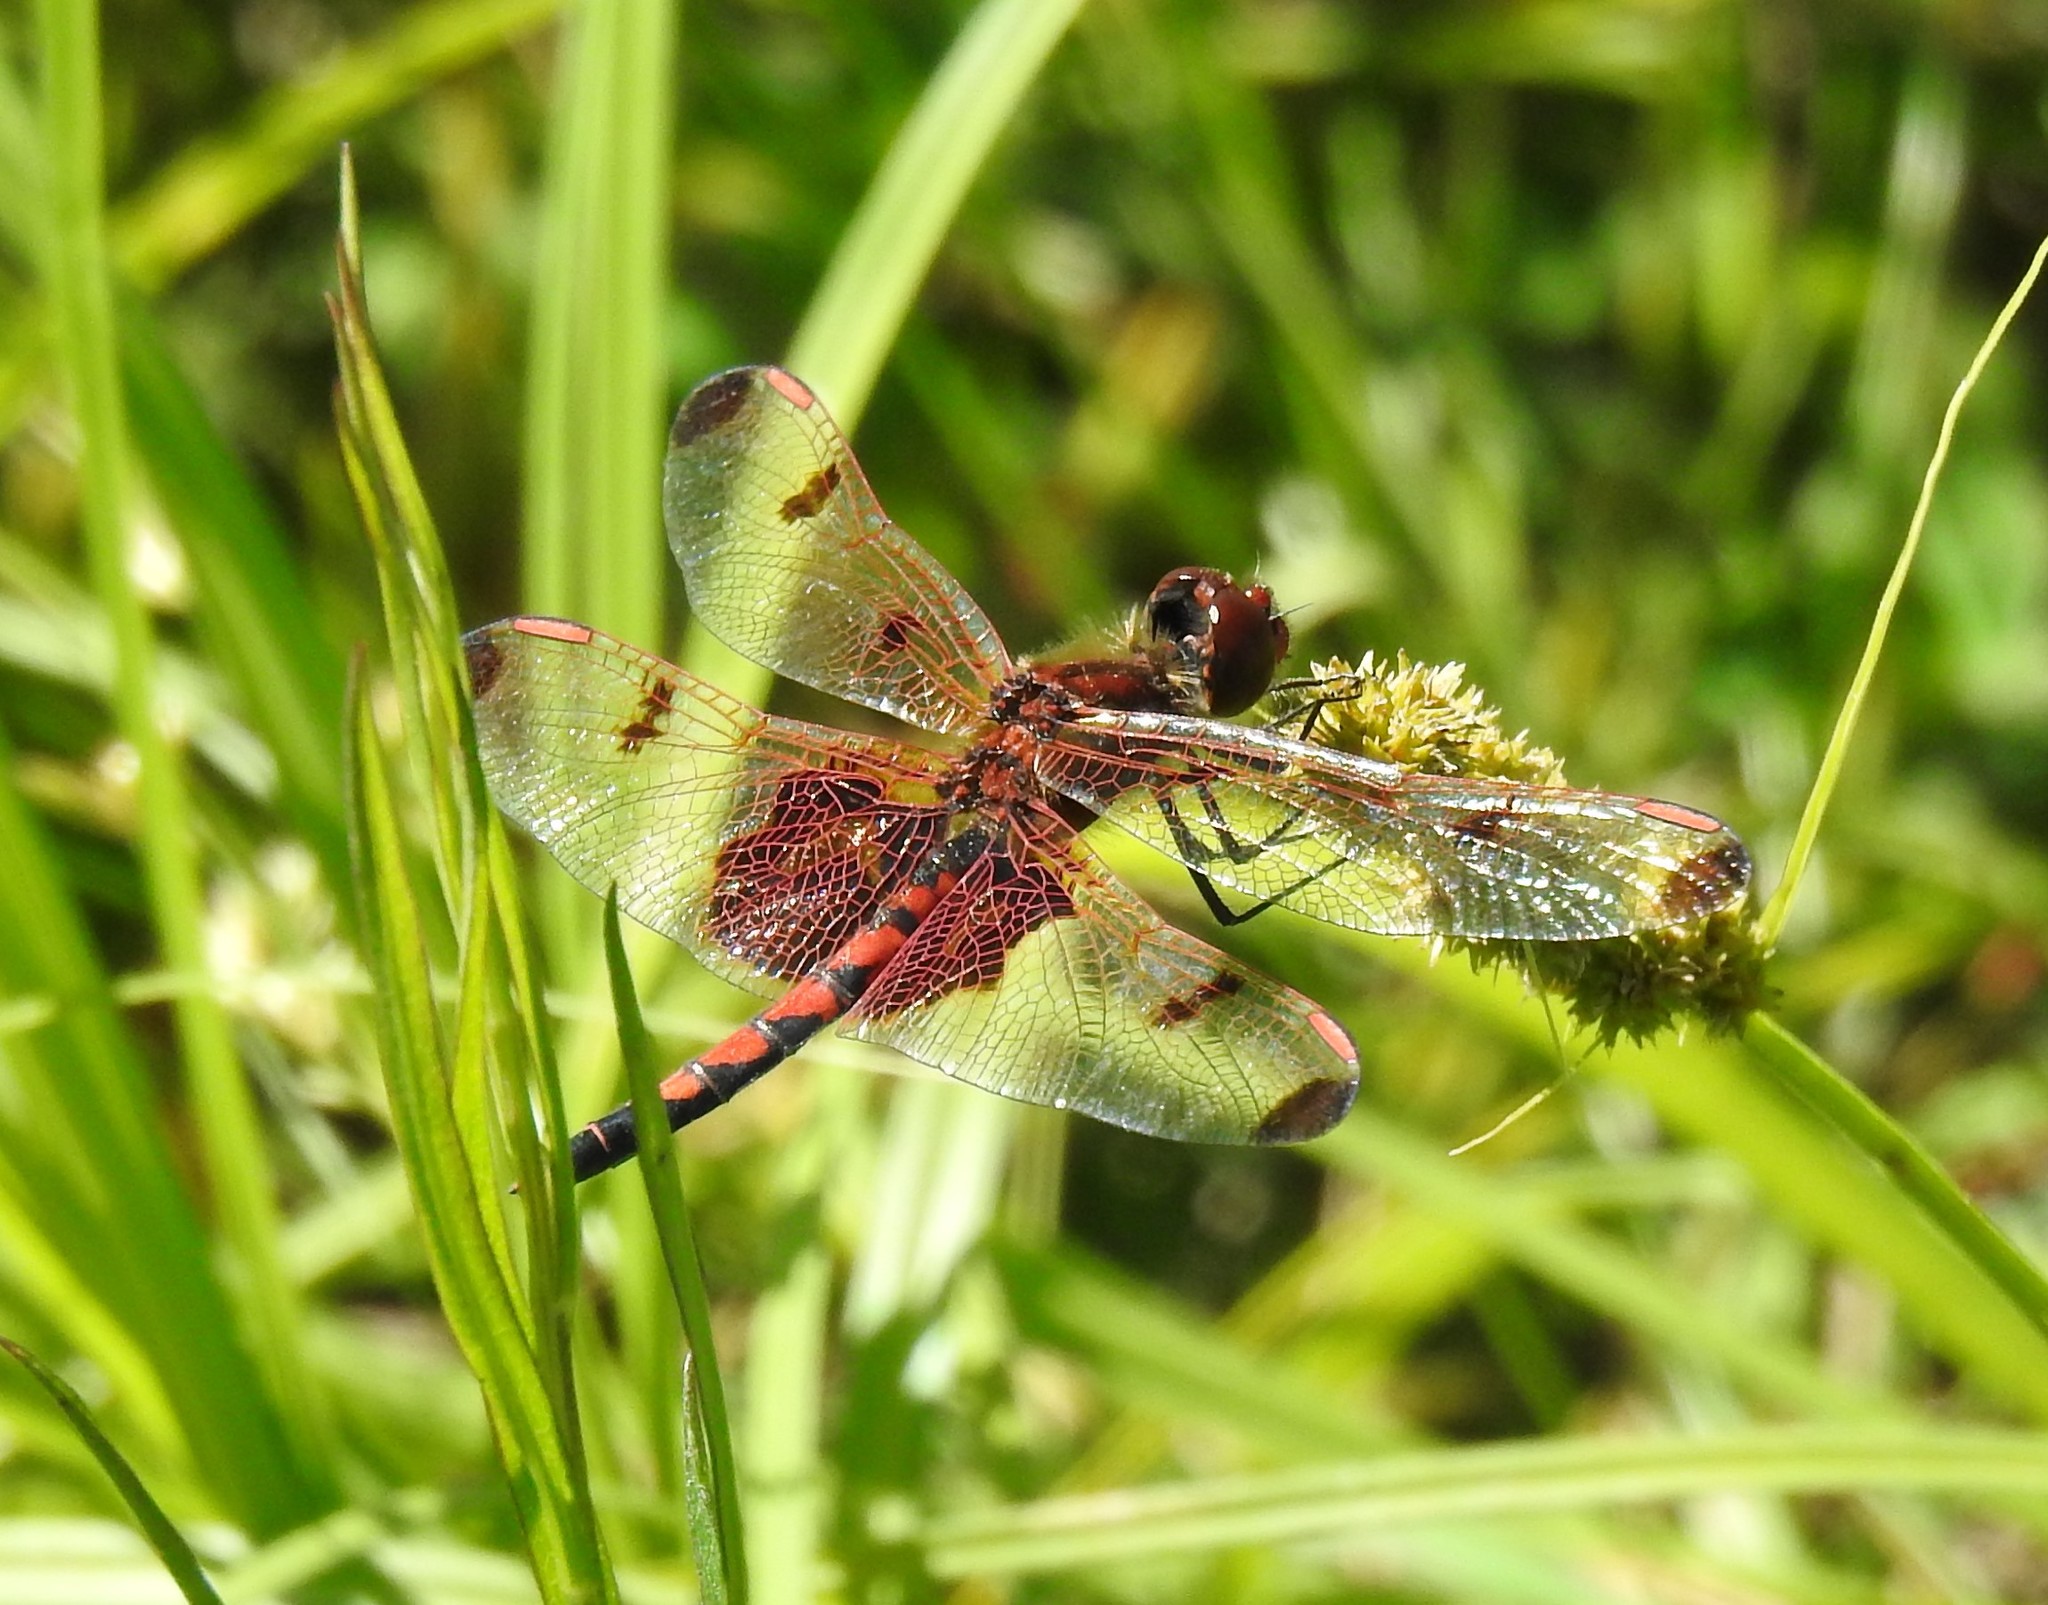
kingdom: Animalia
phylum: Arthropoda
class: Insecta
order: Odonata
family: Libellulidae
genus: Celithemis
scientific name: Celithemis elisa
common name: Calico pennant
